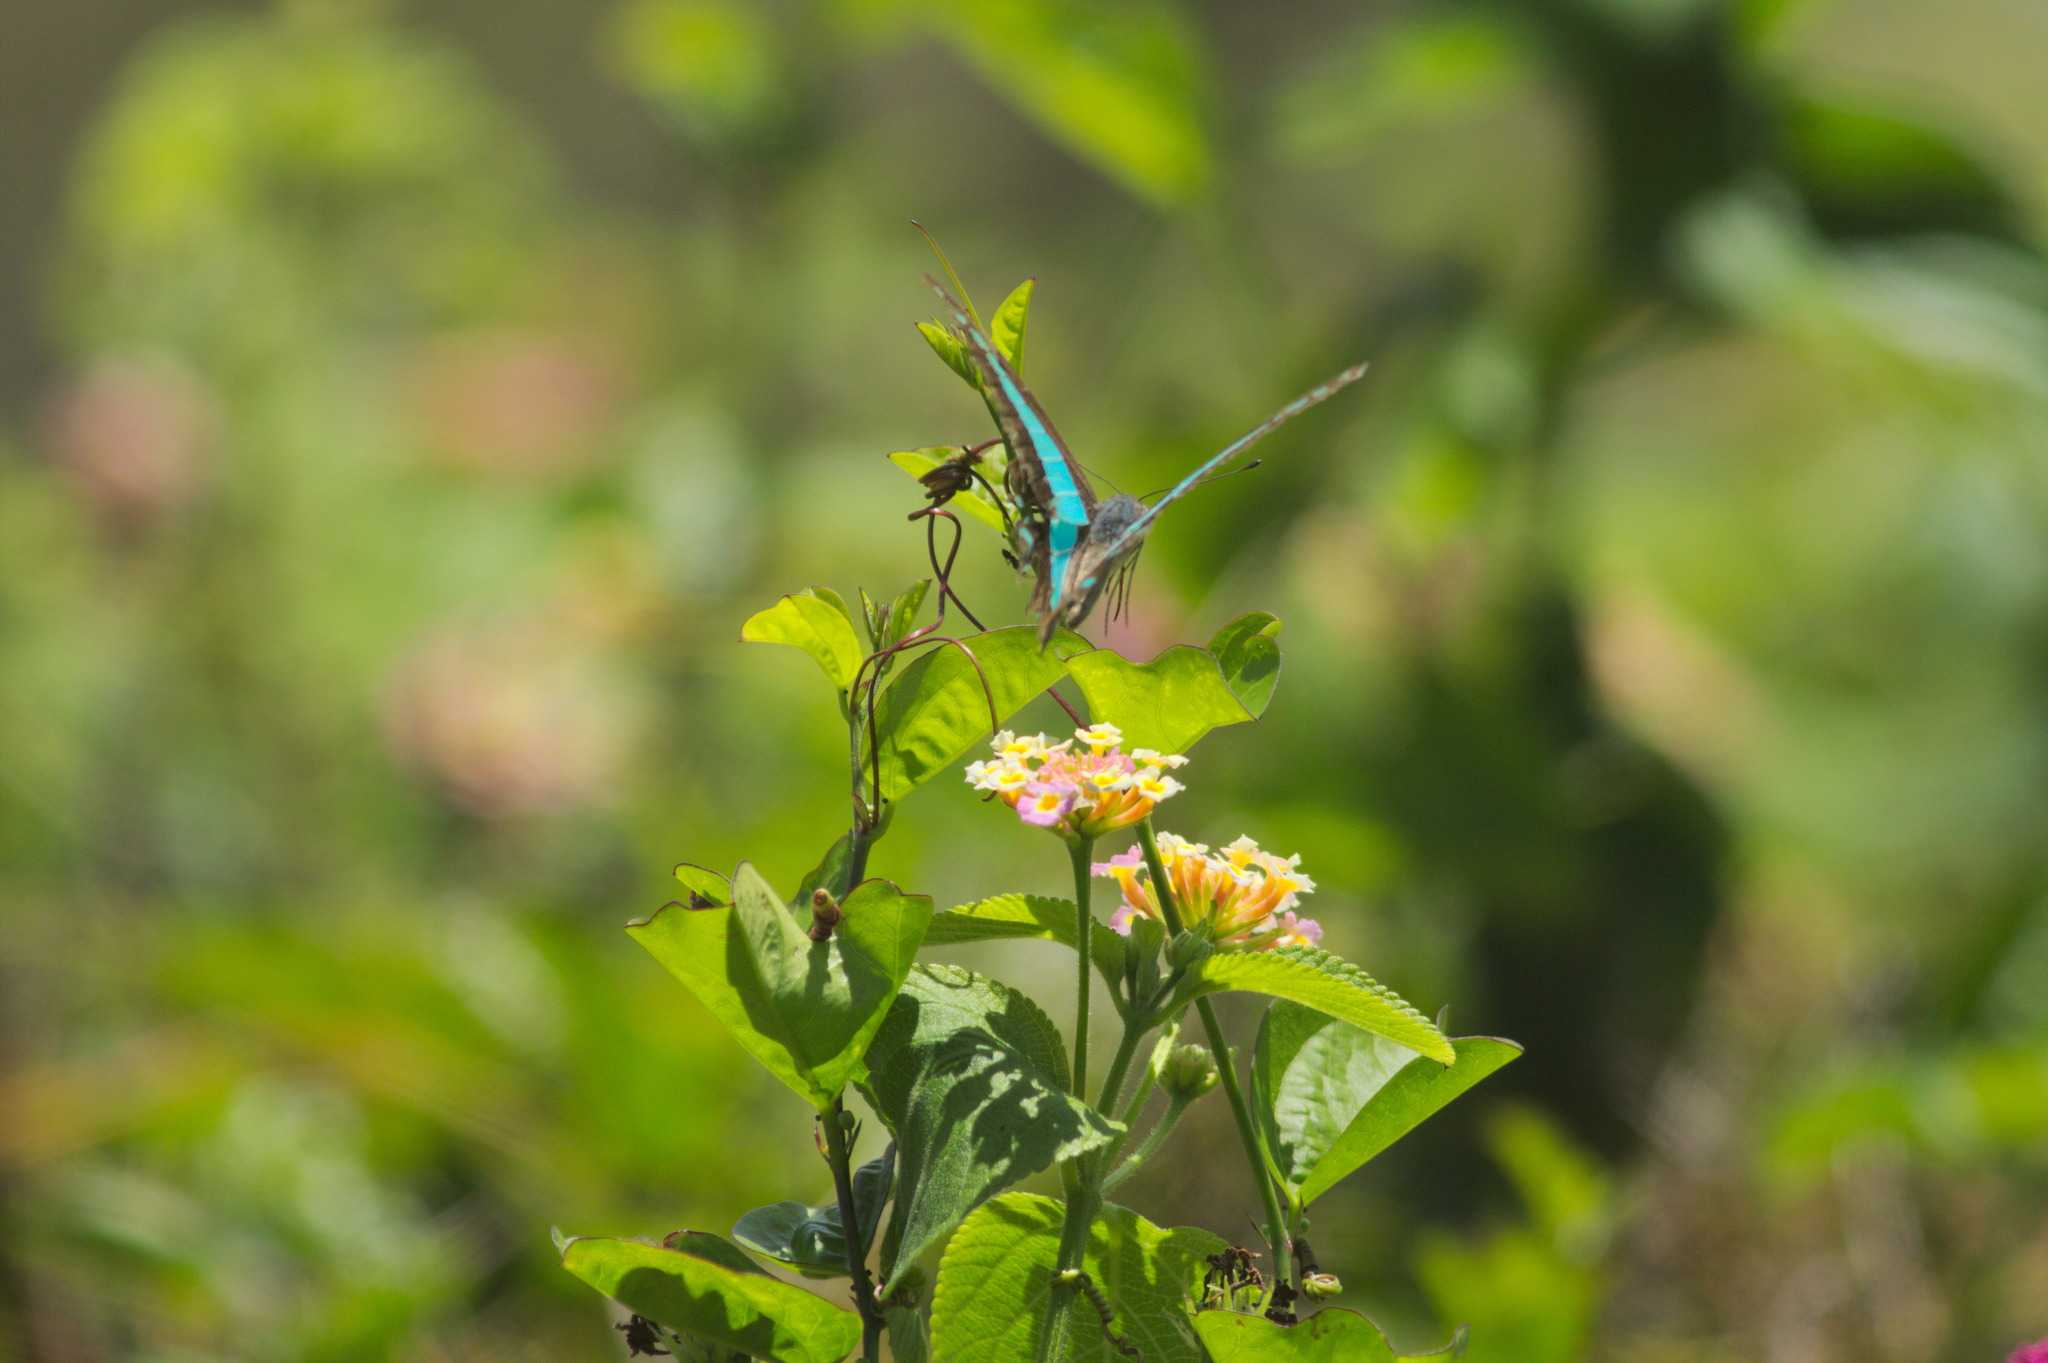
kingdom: Animalia
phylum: Arthropoda
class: Insecta
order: Lepidoptera
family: Papilionidae
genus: Graphium
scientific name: Graphium
